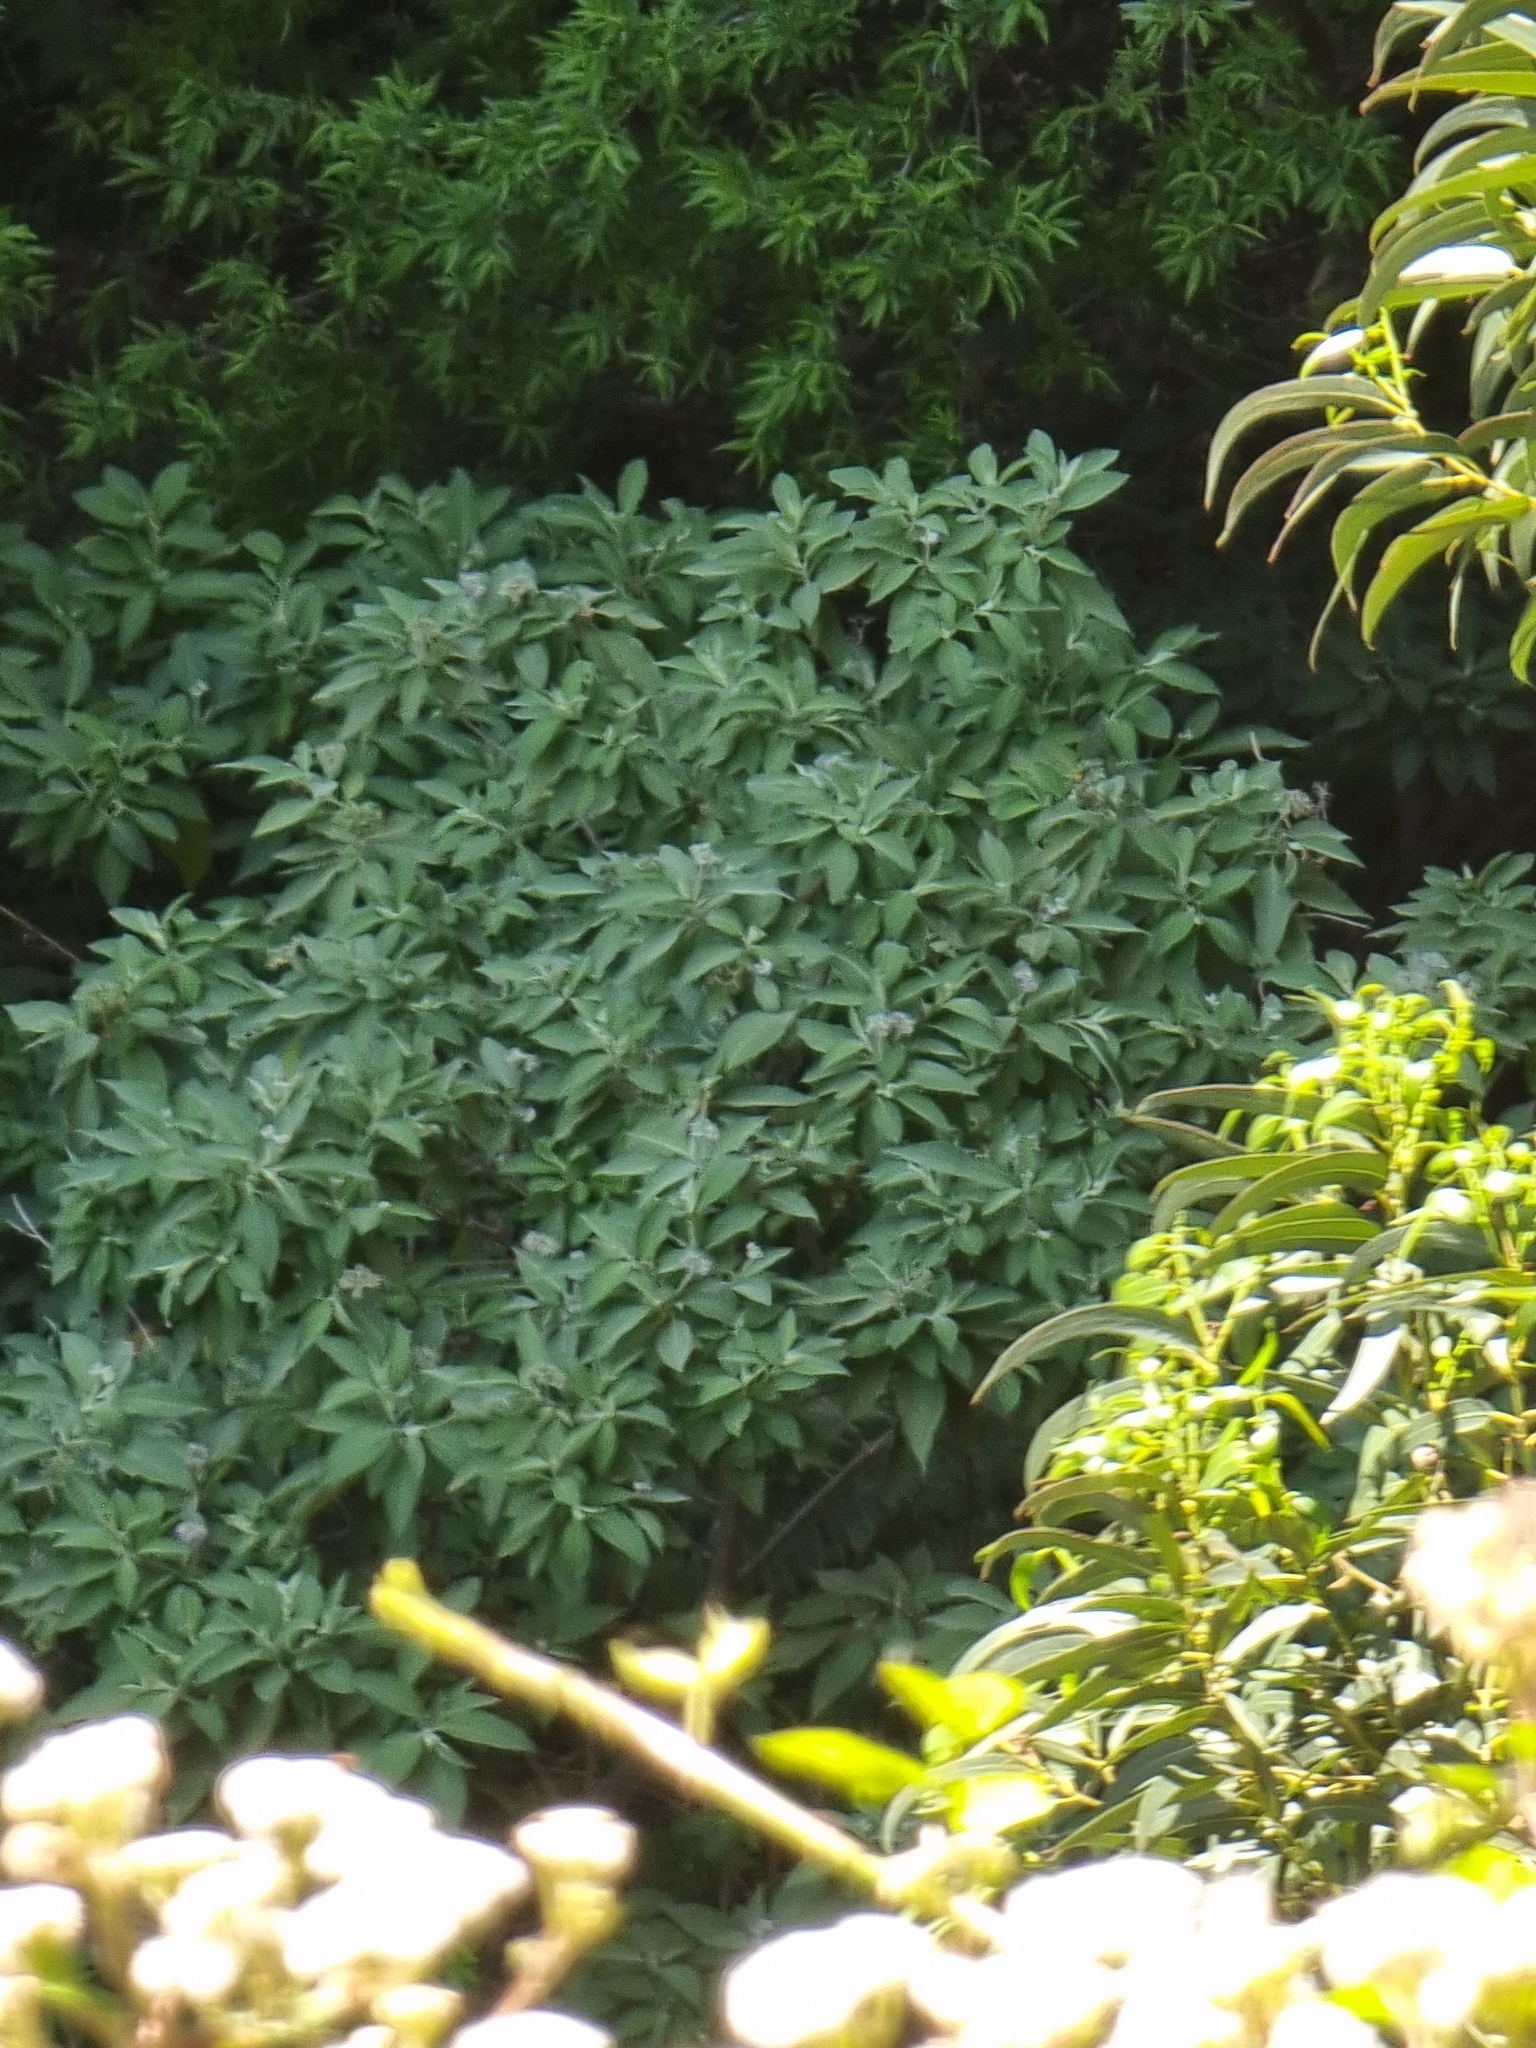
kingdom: Plantae
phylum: Tracheophyta
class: Magnoliopsida
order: Solanales
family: Solanaceae
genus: Solanum
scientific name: Solanum mauritianum
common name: Earleaf nightshade
